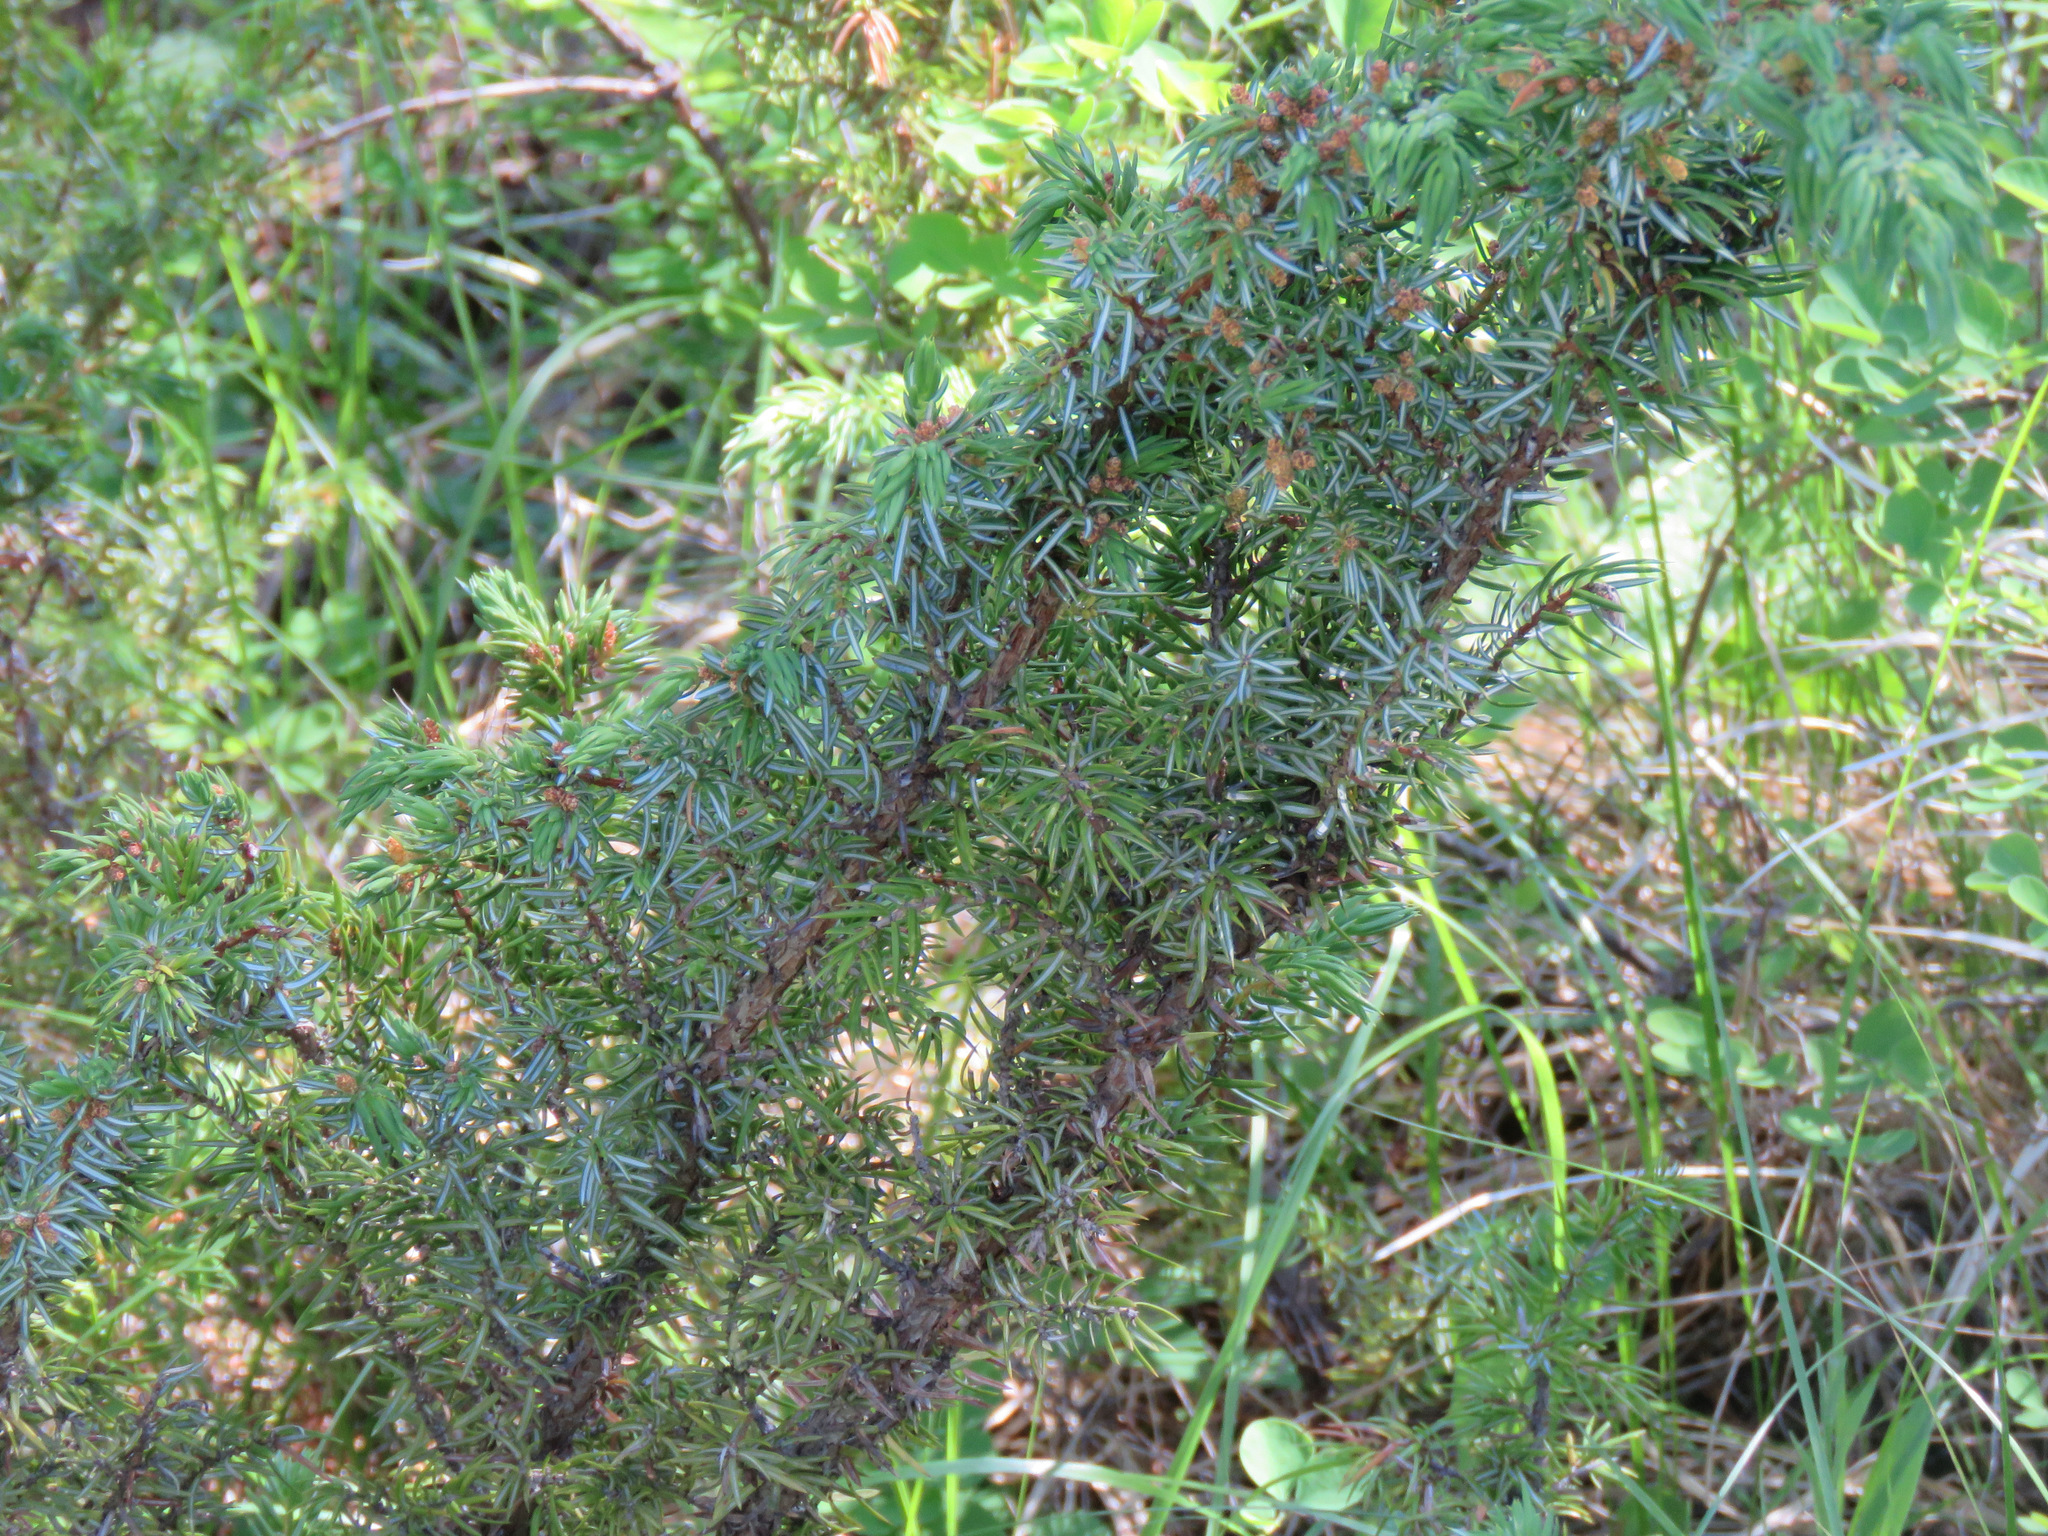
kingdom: Plantae
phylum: Tracheophyta
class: Pinopsida
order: Pinales
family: Cupressaceae
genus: Juniperus
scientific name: Juniperus communis
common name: Common juniper
